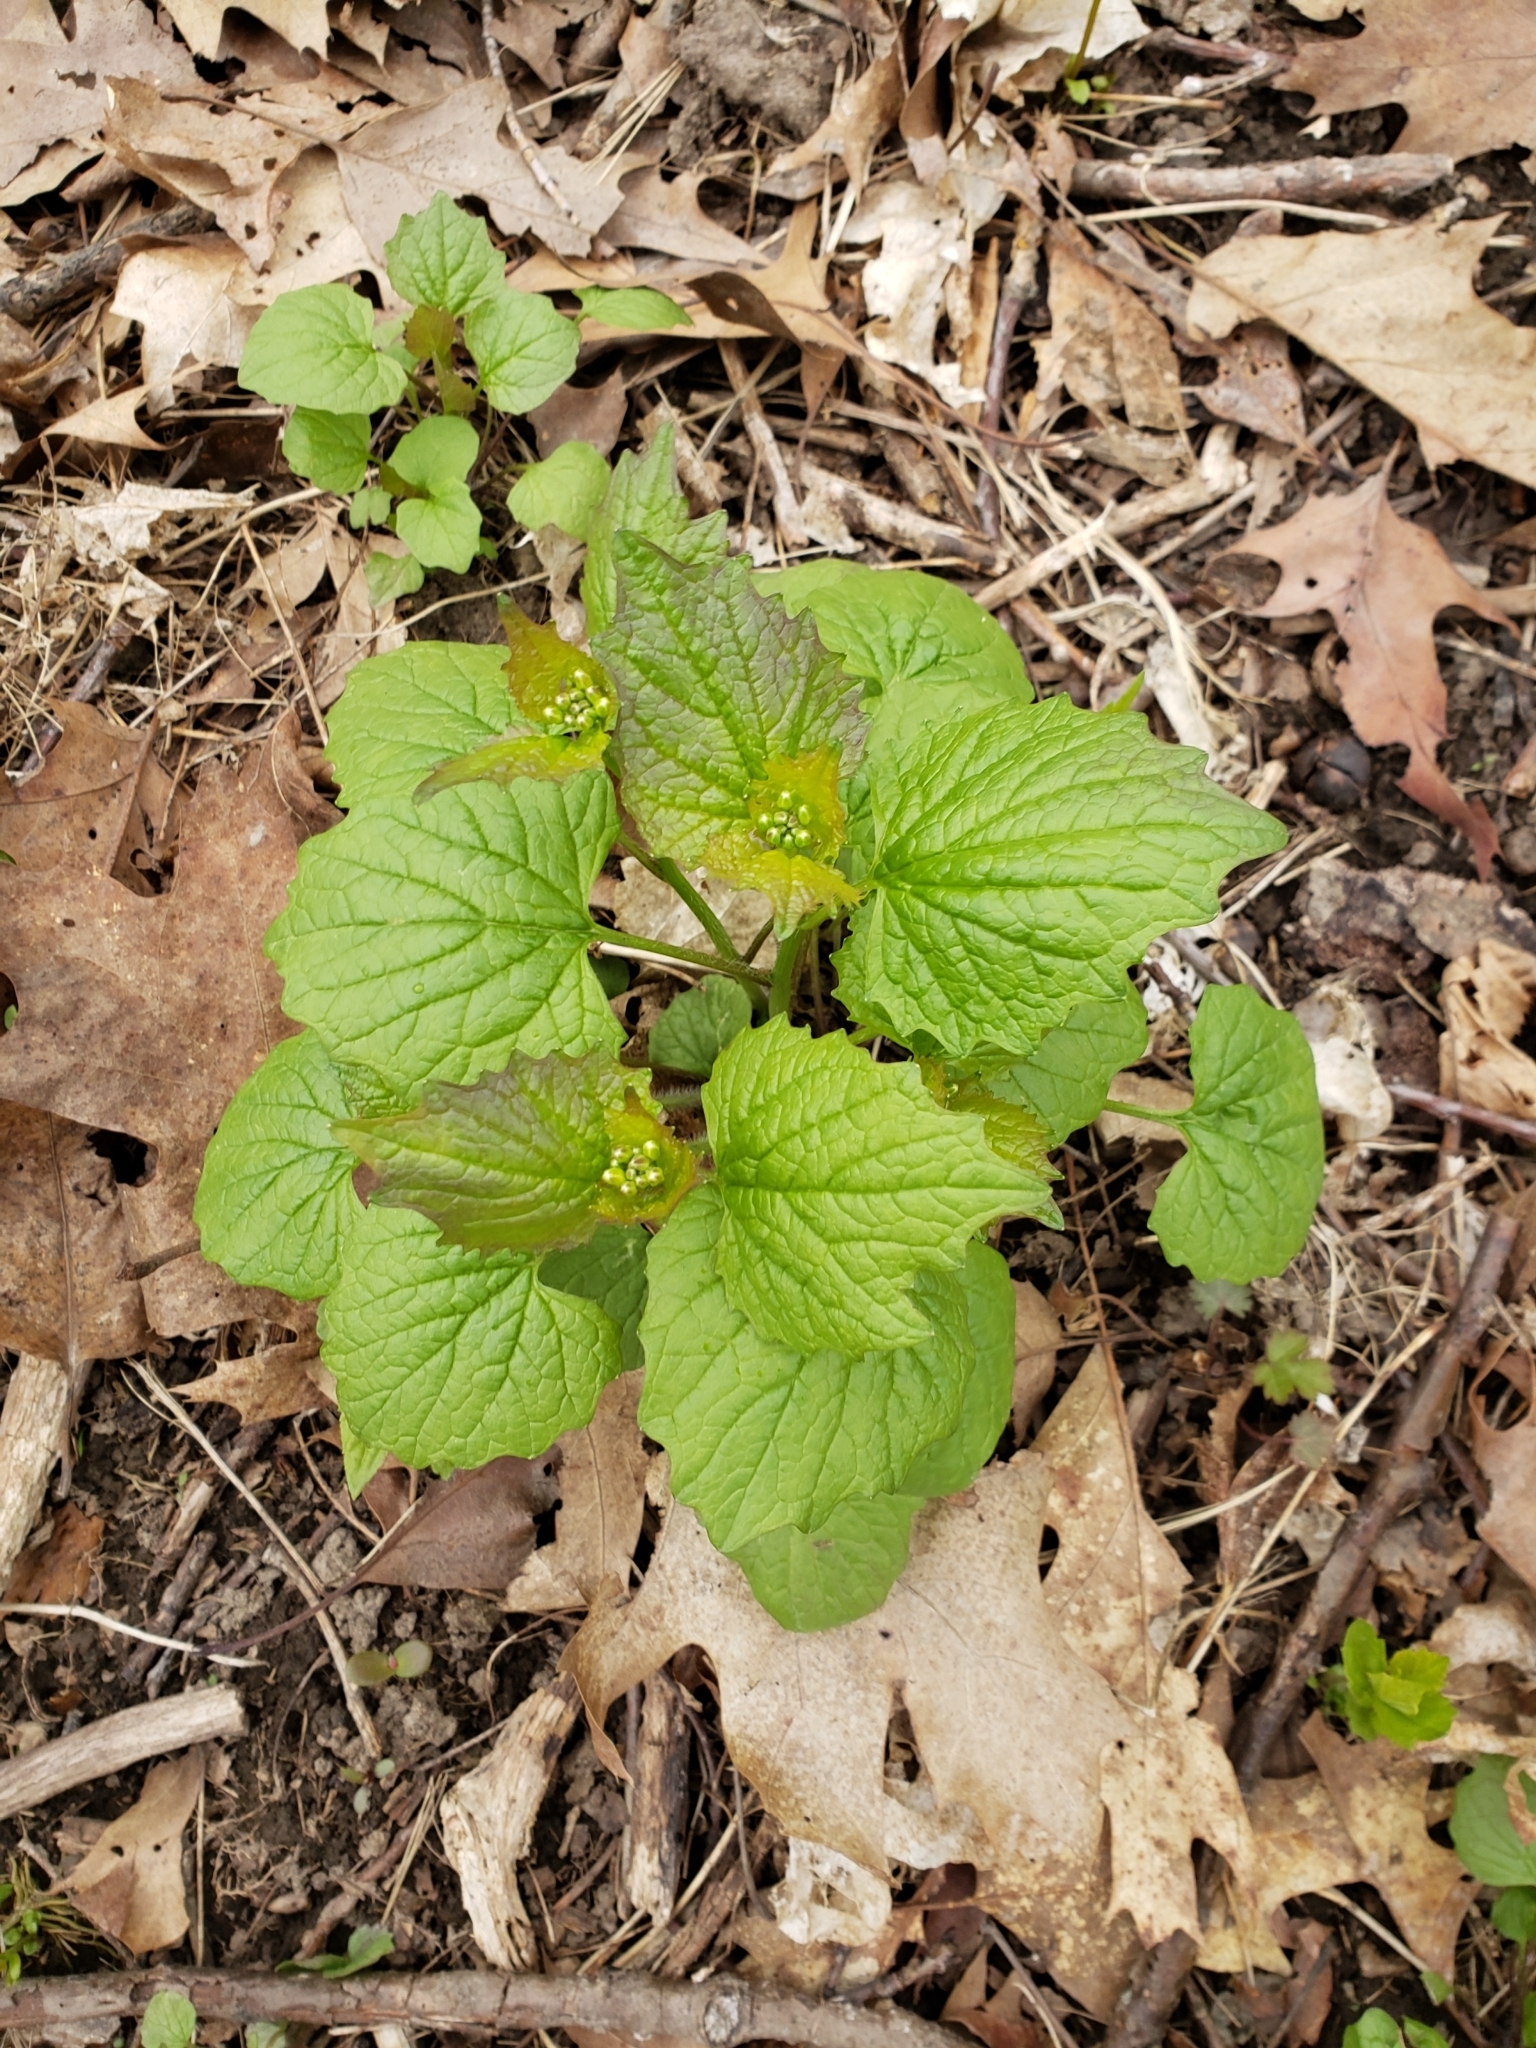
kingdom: Plantae
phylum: Tracheophyta
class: Magnoliopsida
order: Brassicales
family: Brassicaceae
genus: Alliaria
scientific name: Alliaria petiolata
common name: Garlic mustard
